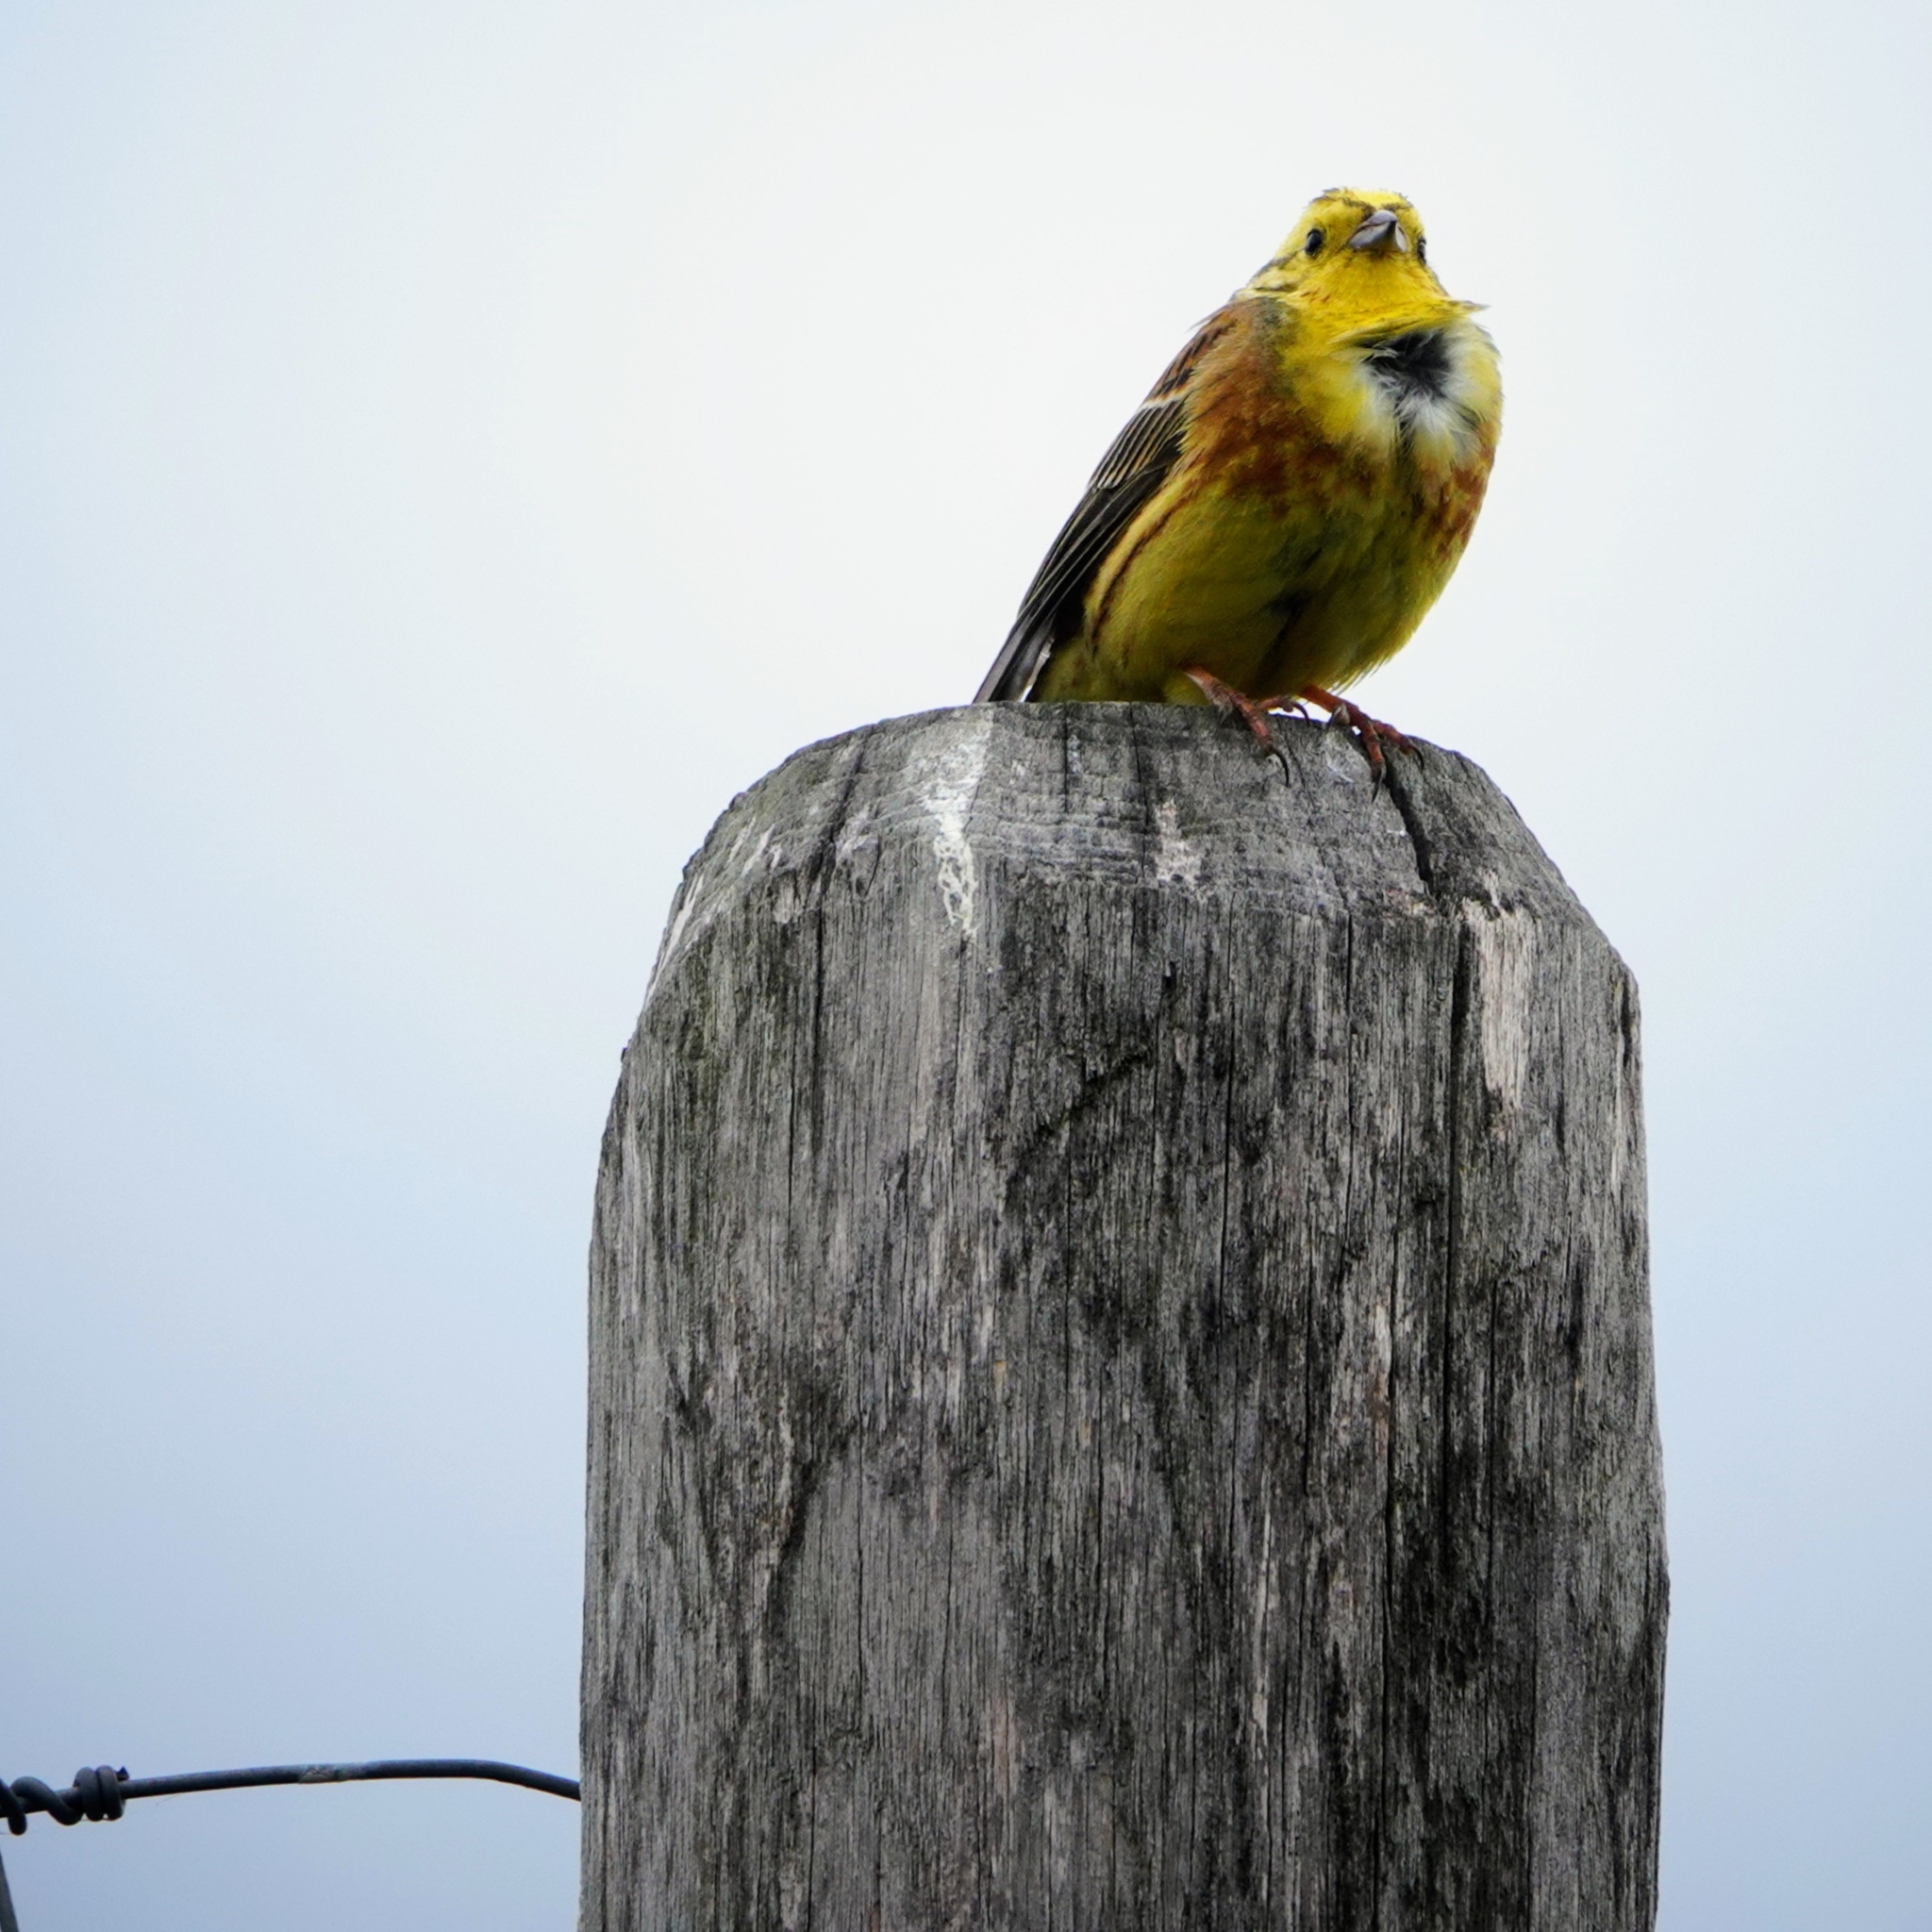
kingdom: Animalia
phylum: Chordata
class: Aves
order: Passeriformes
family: Emberizidae
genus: Emberiza
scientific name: Emberiza citrinella
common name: Yellowhammer
